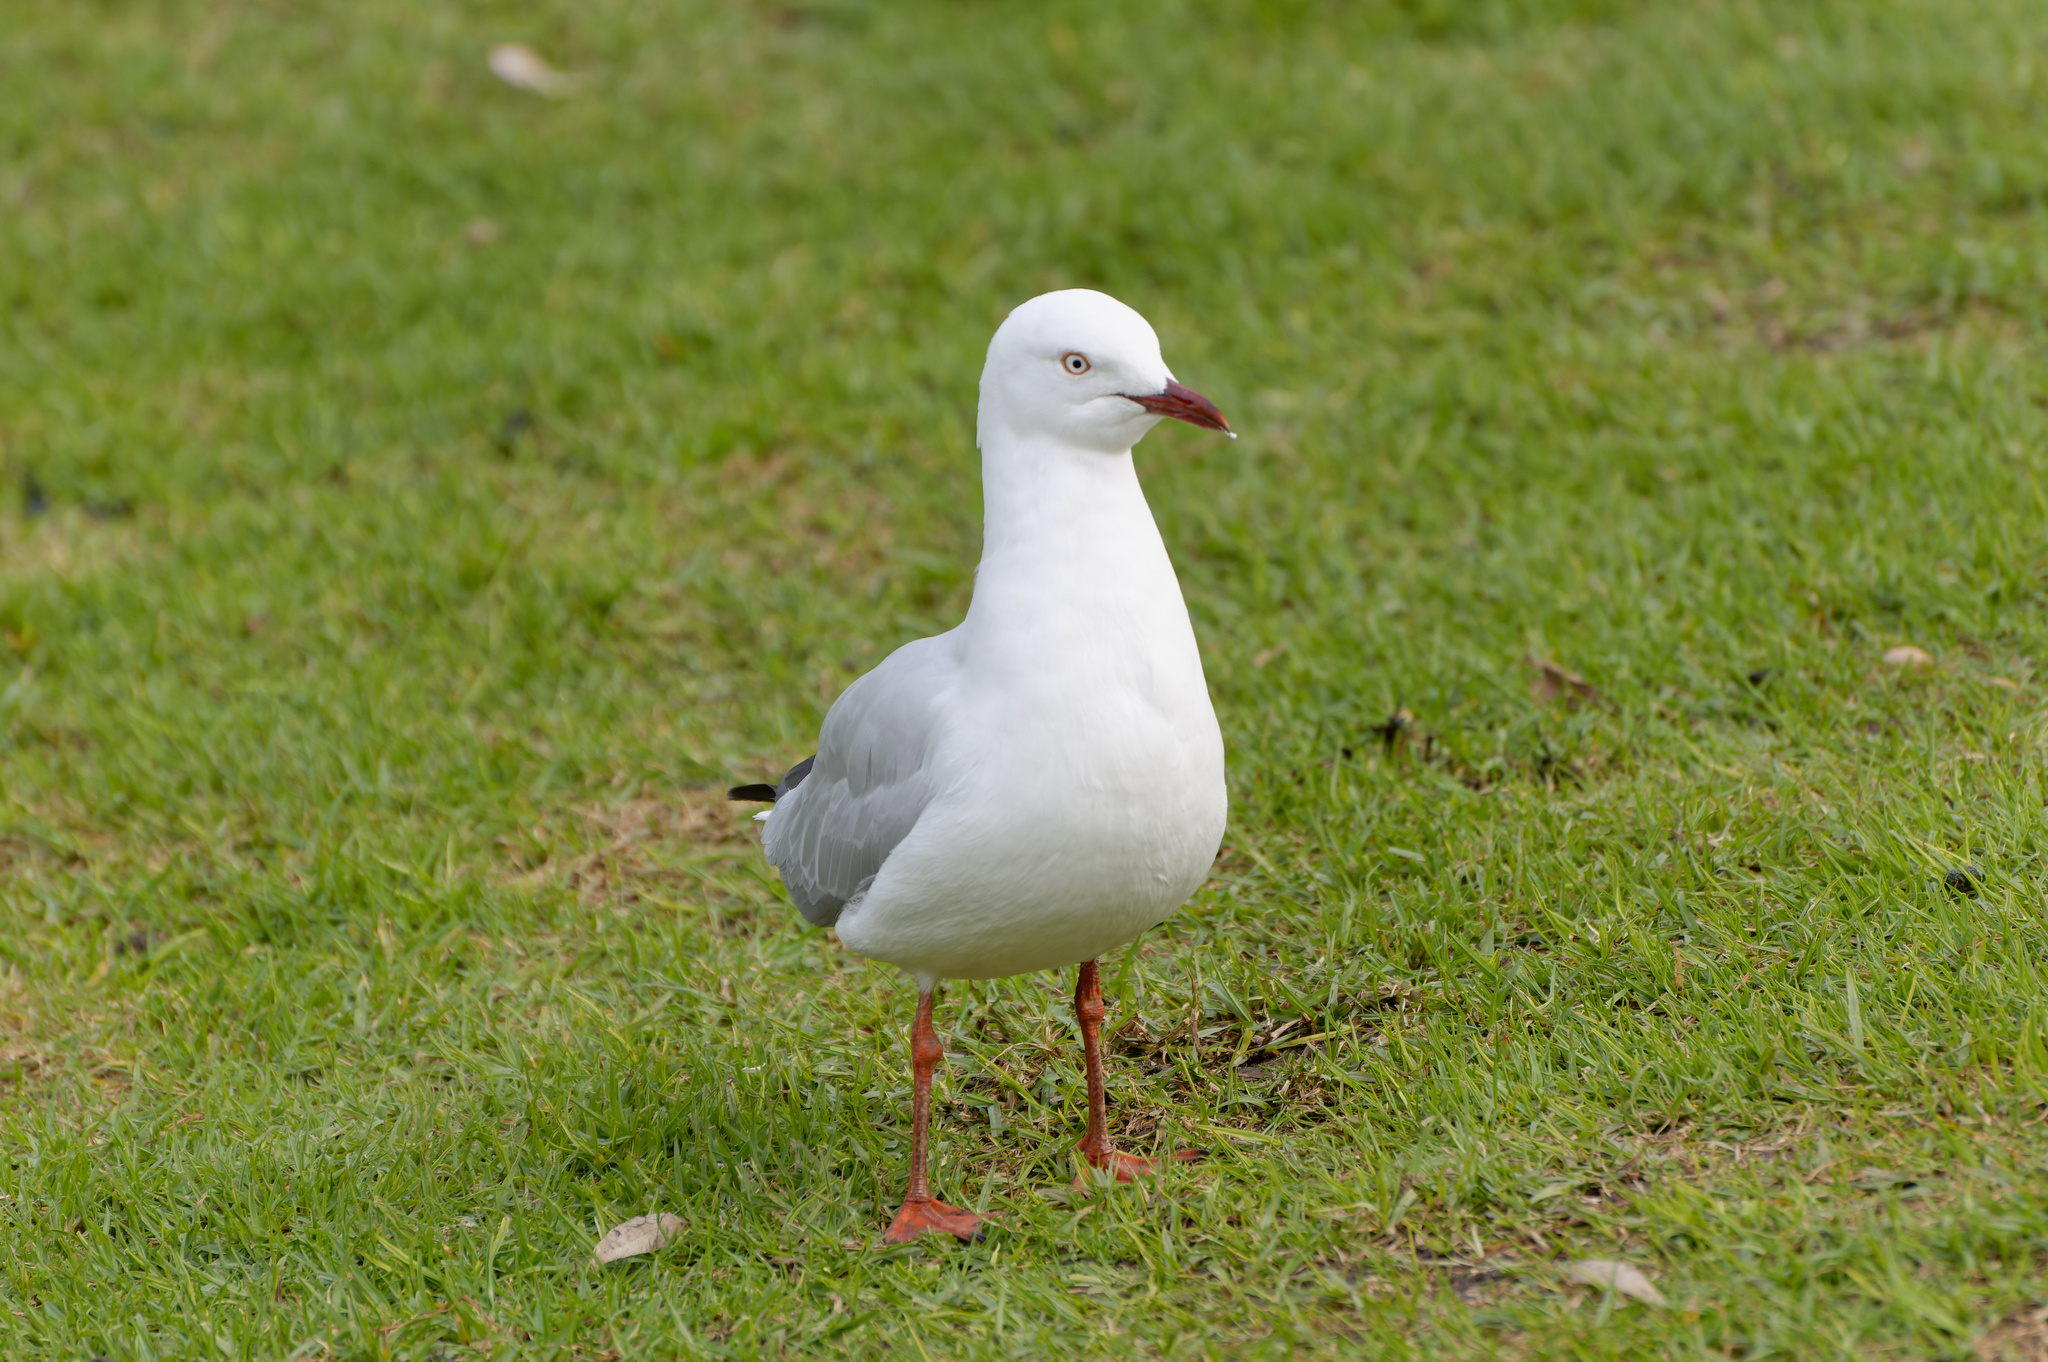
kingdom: Animalia
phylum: Chordata
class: Aves
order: Charadriiformes
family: Laridae
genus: Chroicocephalus
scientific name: Chroicocephalus novaehollandiae
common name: Silver gull
